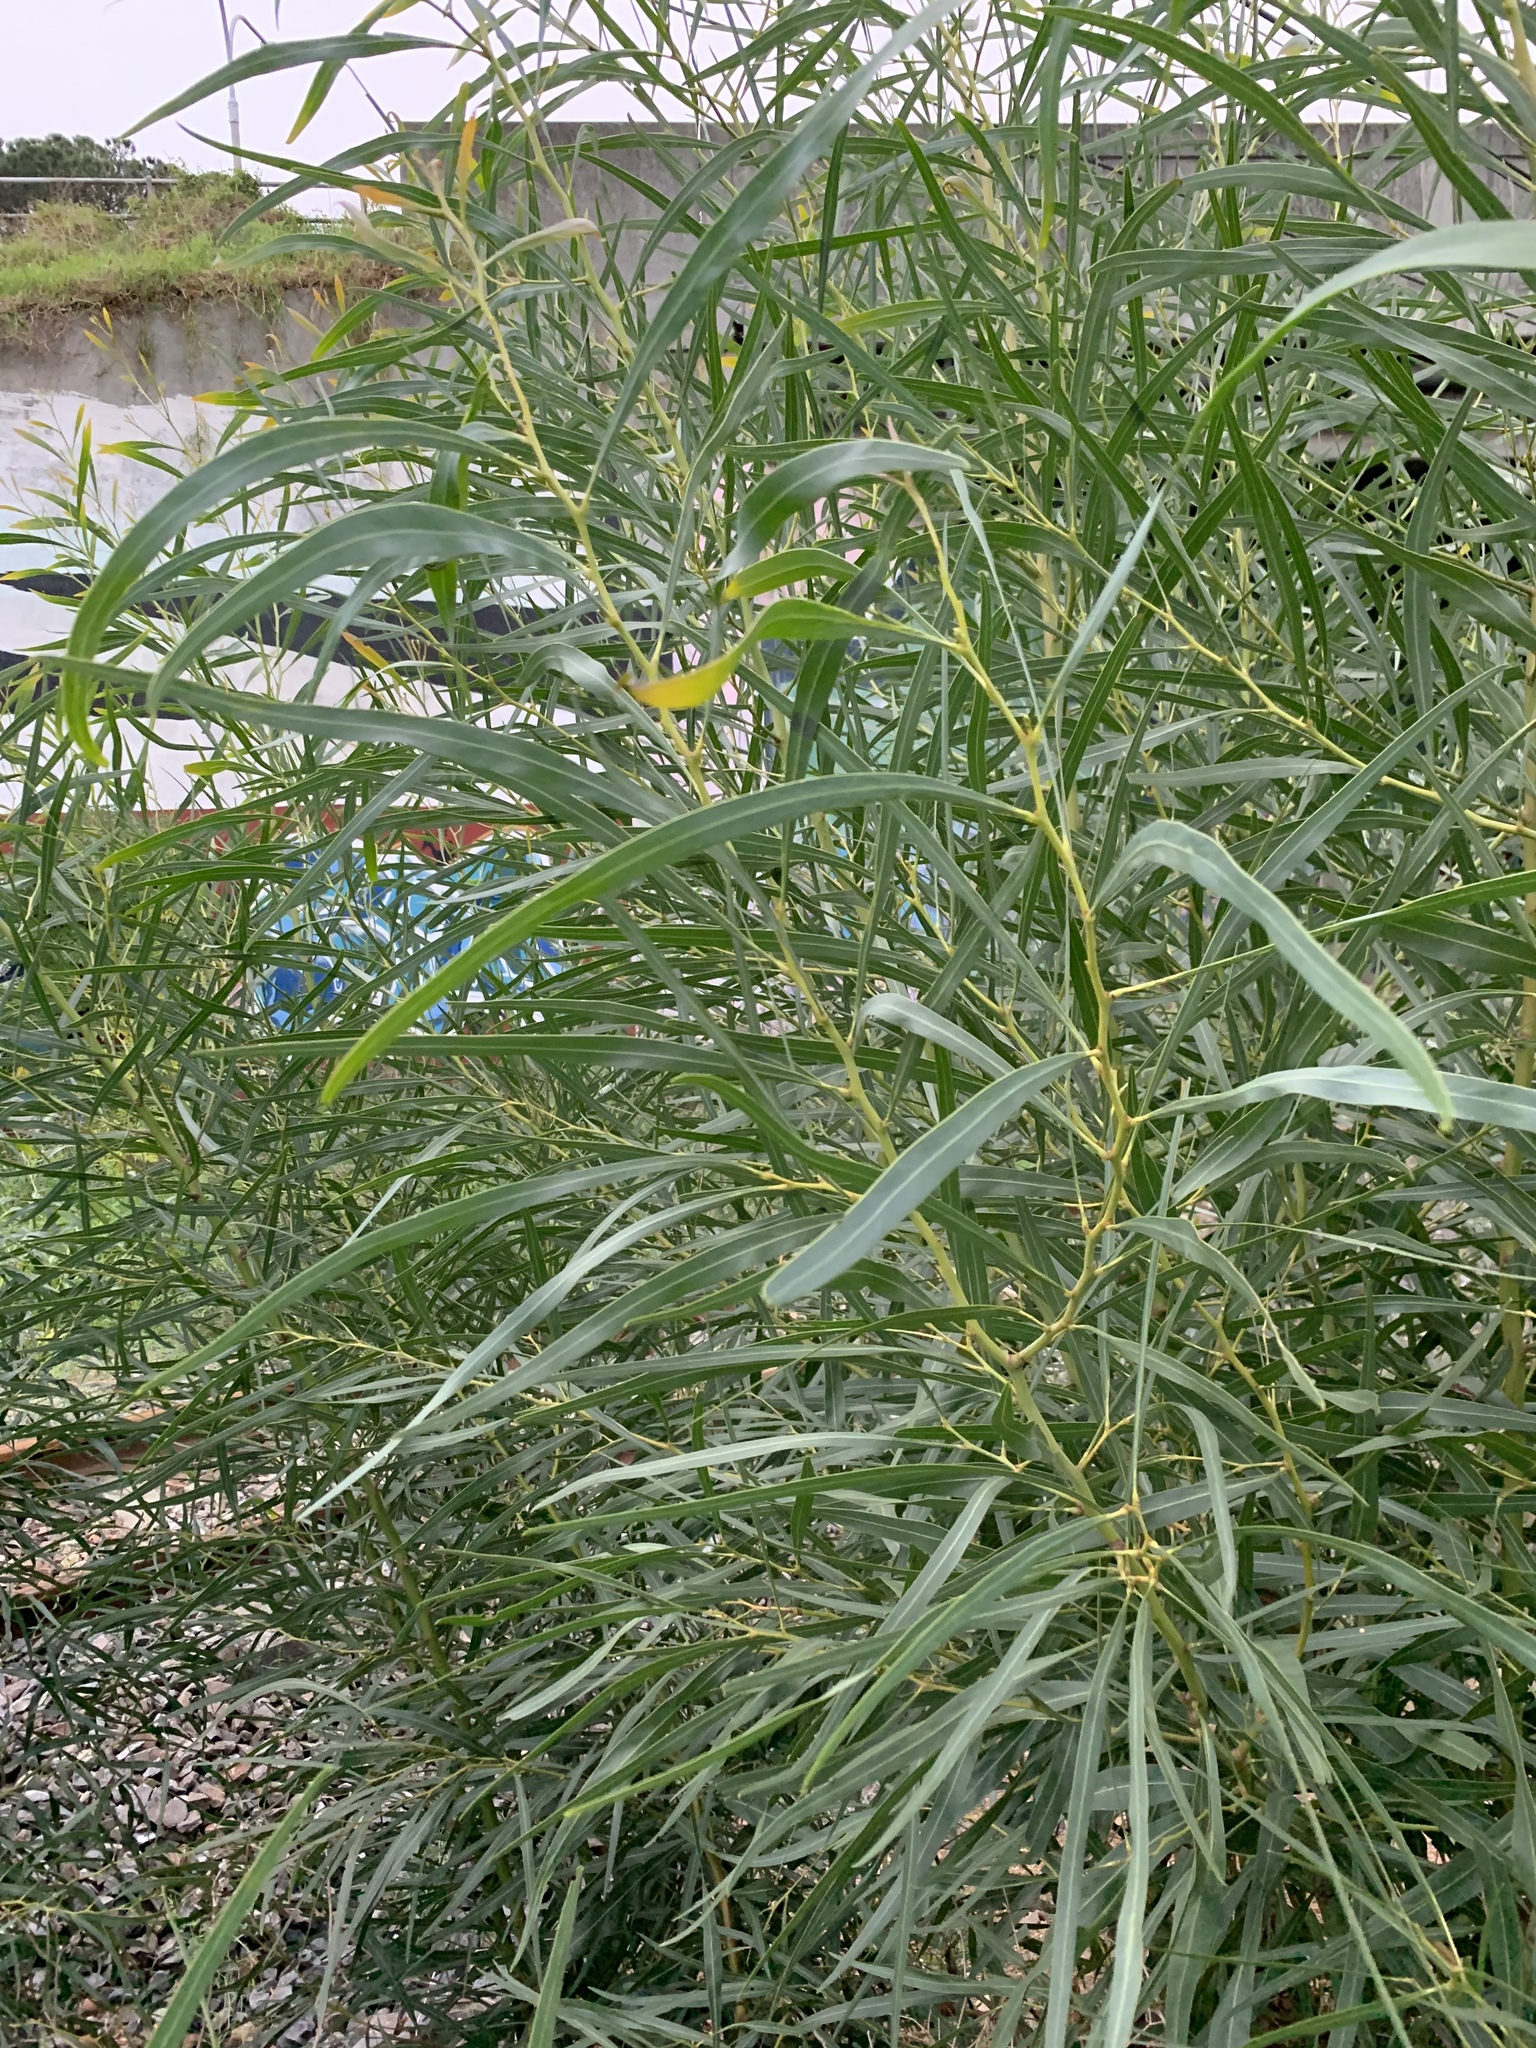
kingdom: Plantae
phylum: Tracheophyta
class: Magnoliopsida
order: Fabales
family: Fabaceae
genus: Acacia
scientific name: Acacia saligna
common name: Orange wattle
